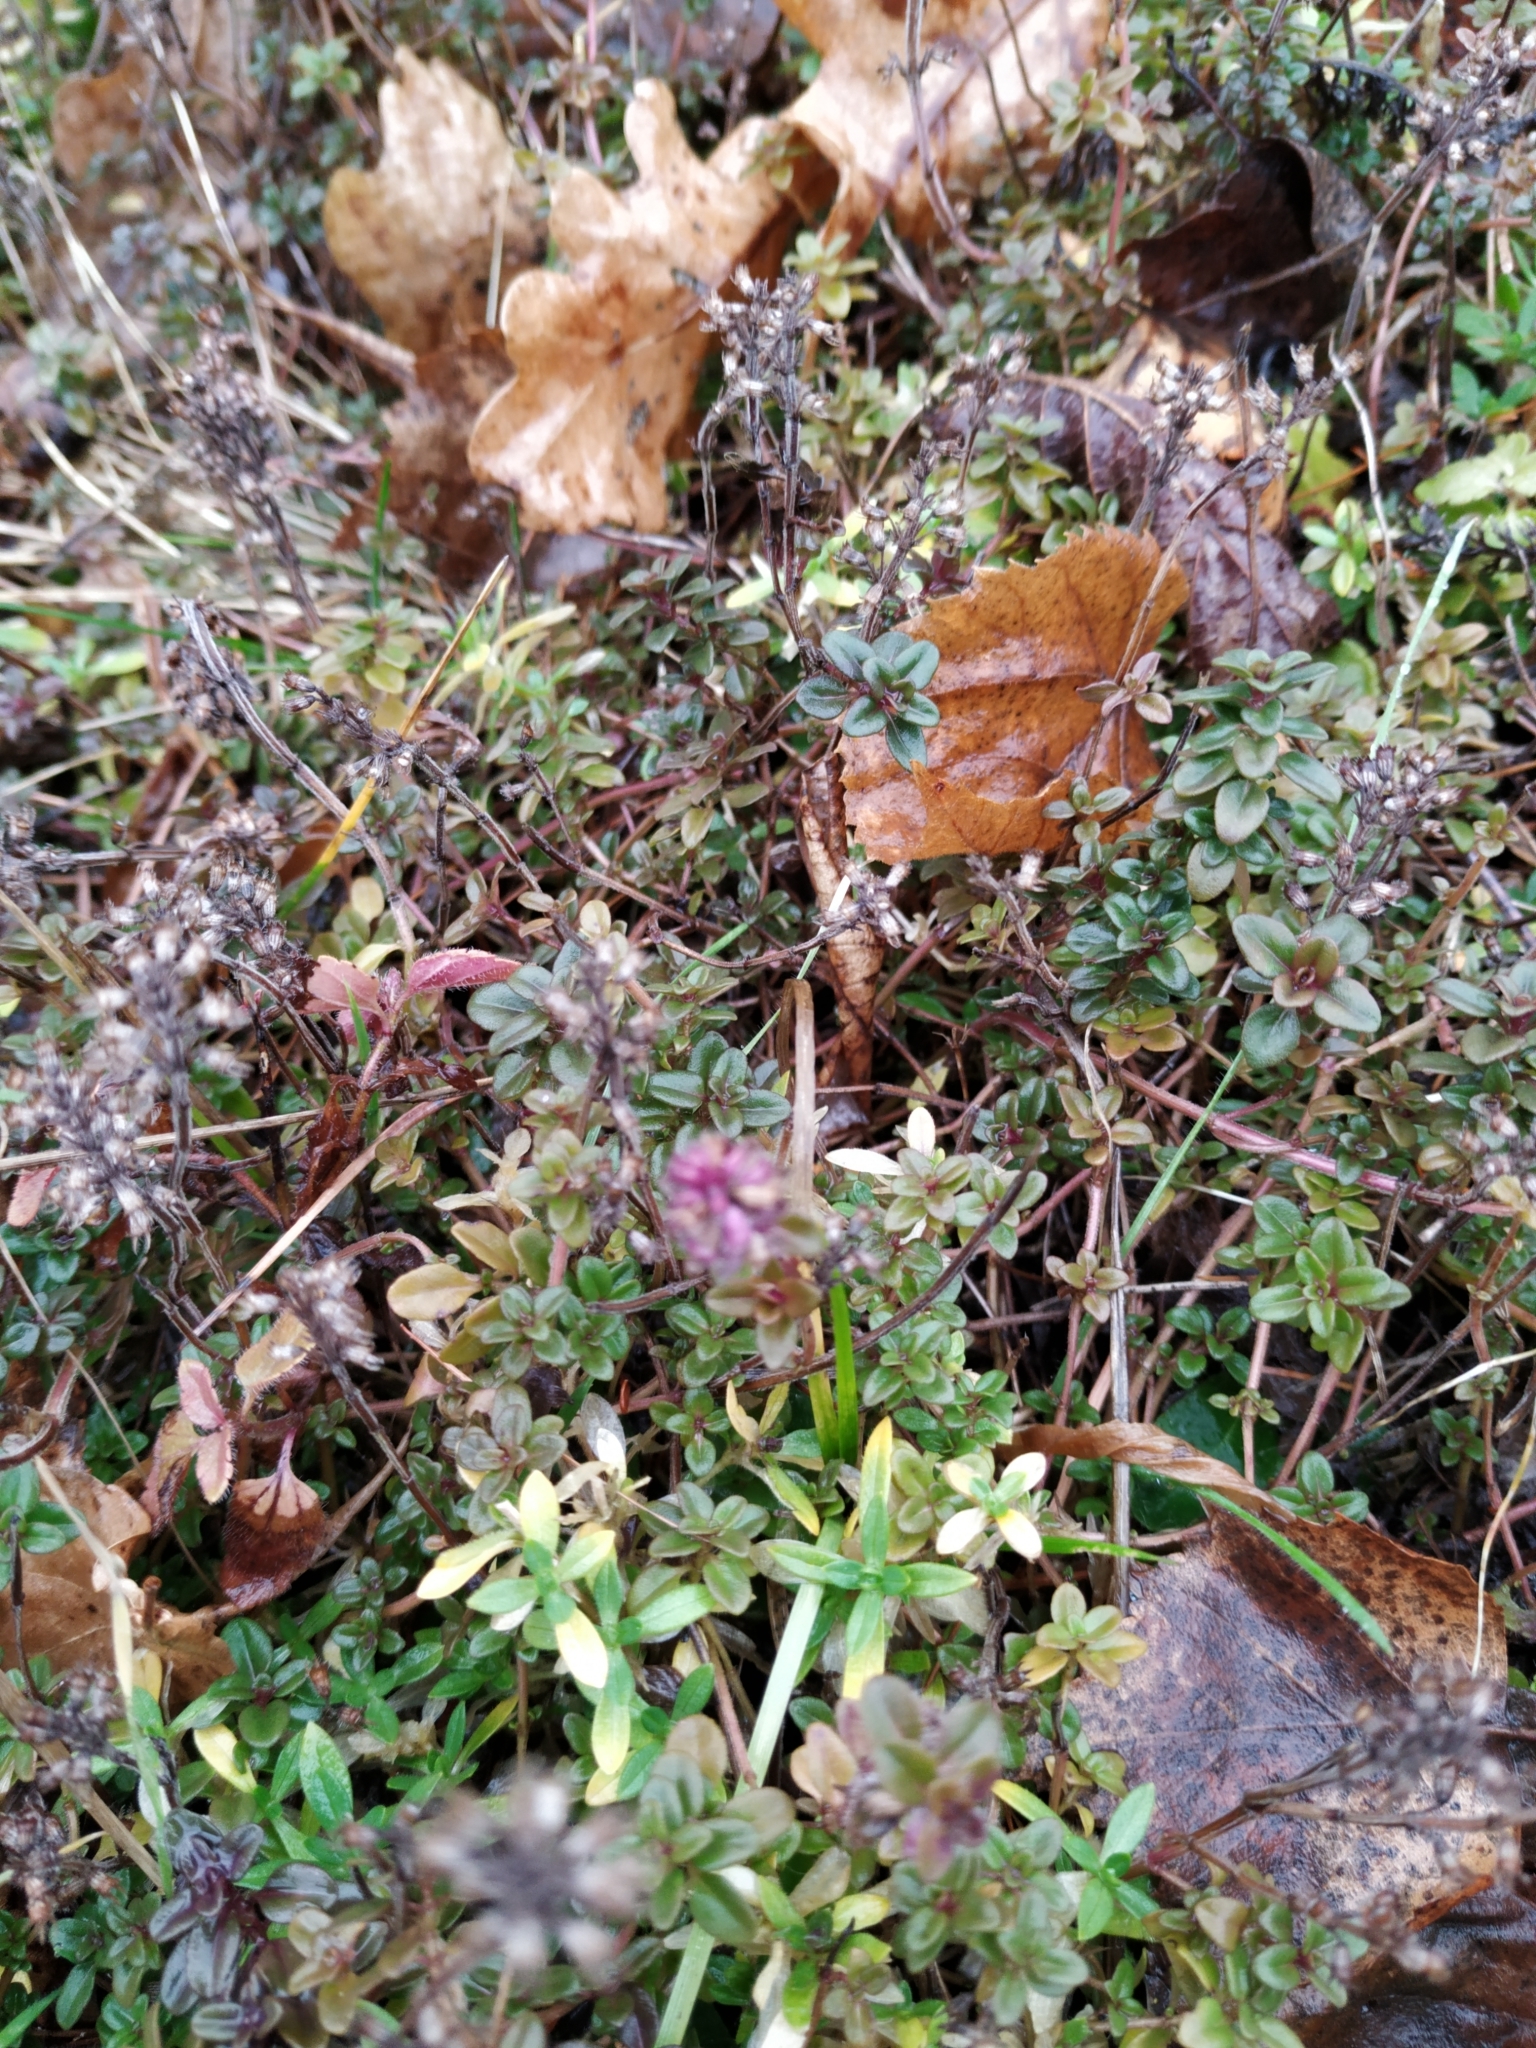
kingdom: Plantae
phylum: Tracheophyta
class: Magnoliopsida
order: Lamiales
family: Lamiaceae
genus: Thymus
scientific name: Thymus pulegioides
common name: Large thyme
